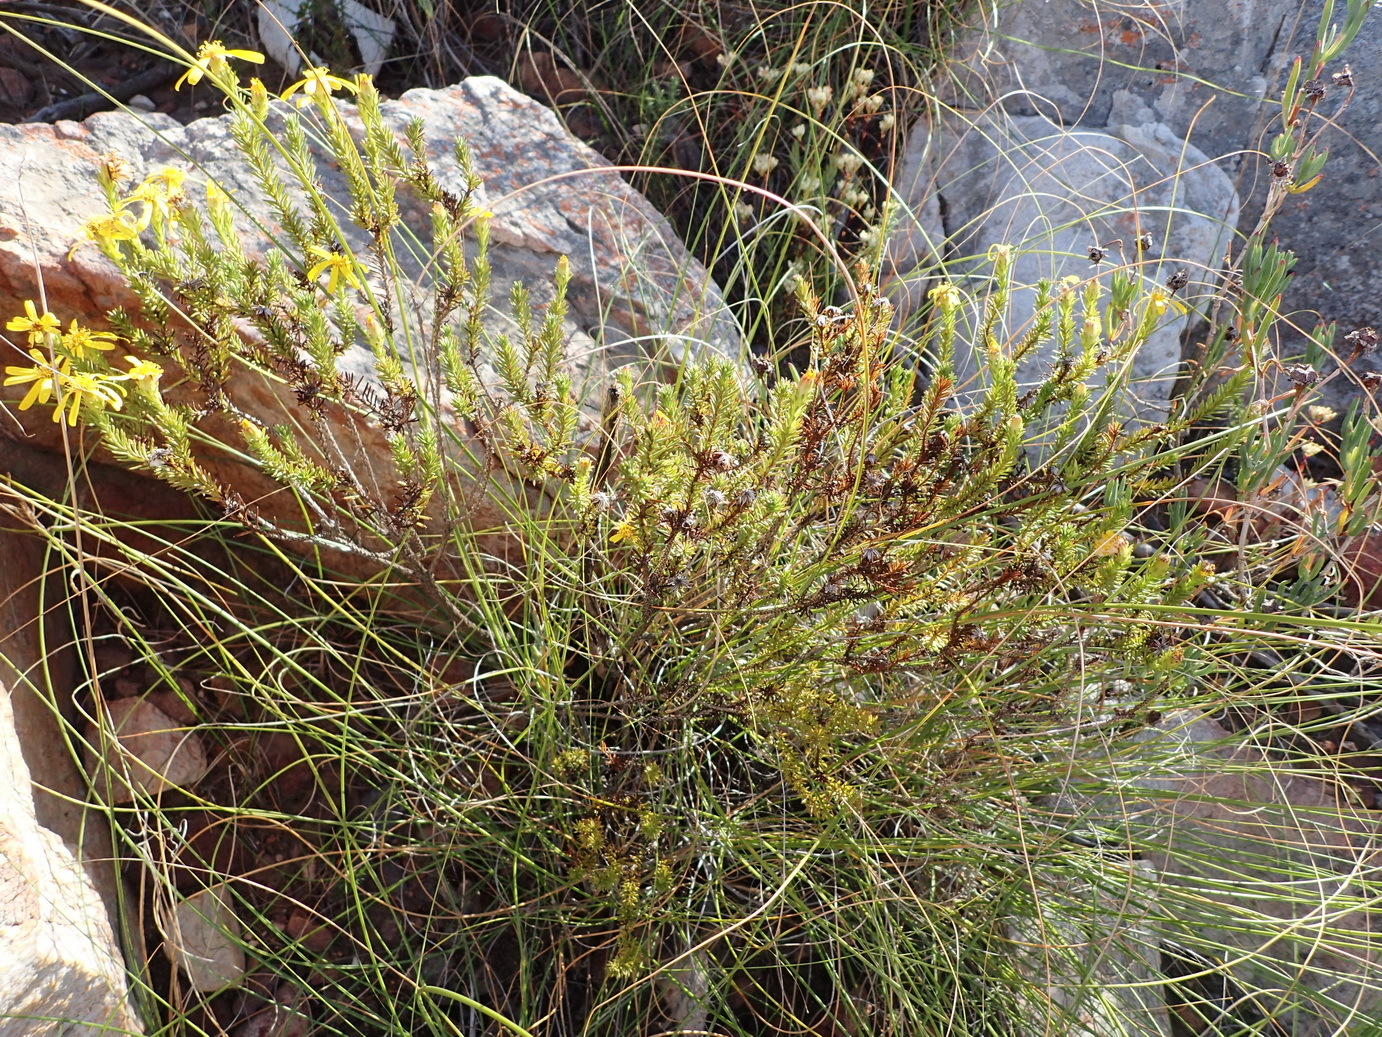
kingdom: Plantae
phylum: Tracheophyta
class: Magnoliopsida
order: Asterales
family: Asteraceae
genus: Senecio
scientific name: Senecio pinifolius
